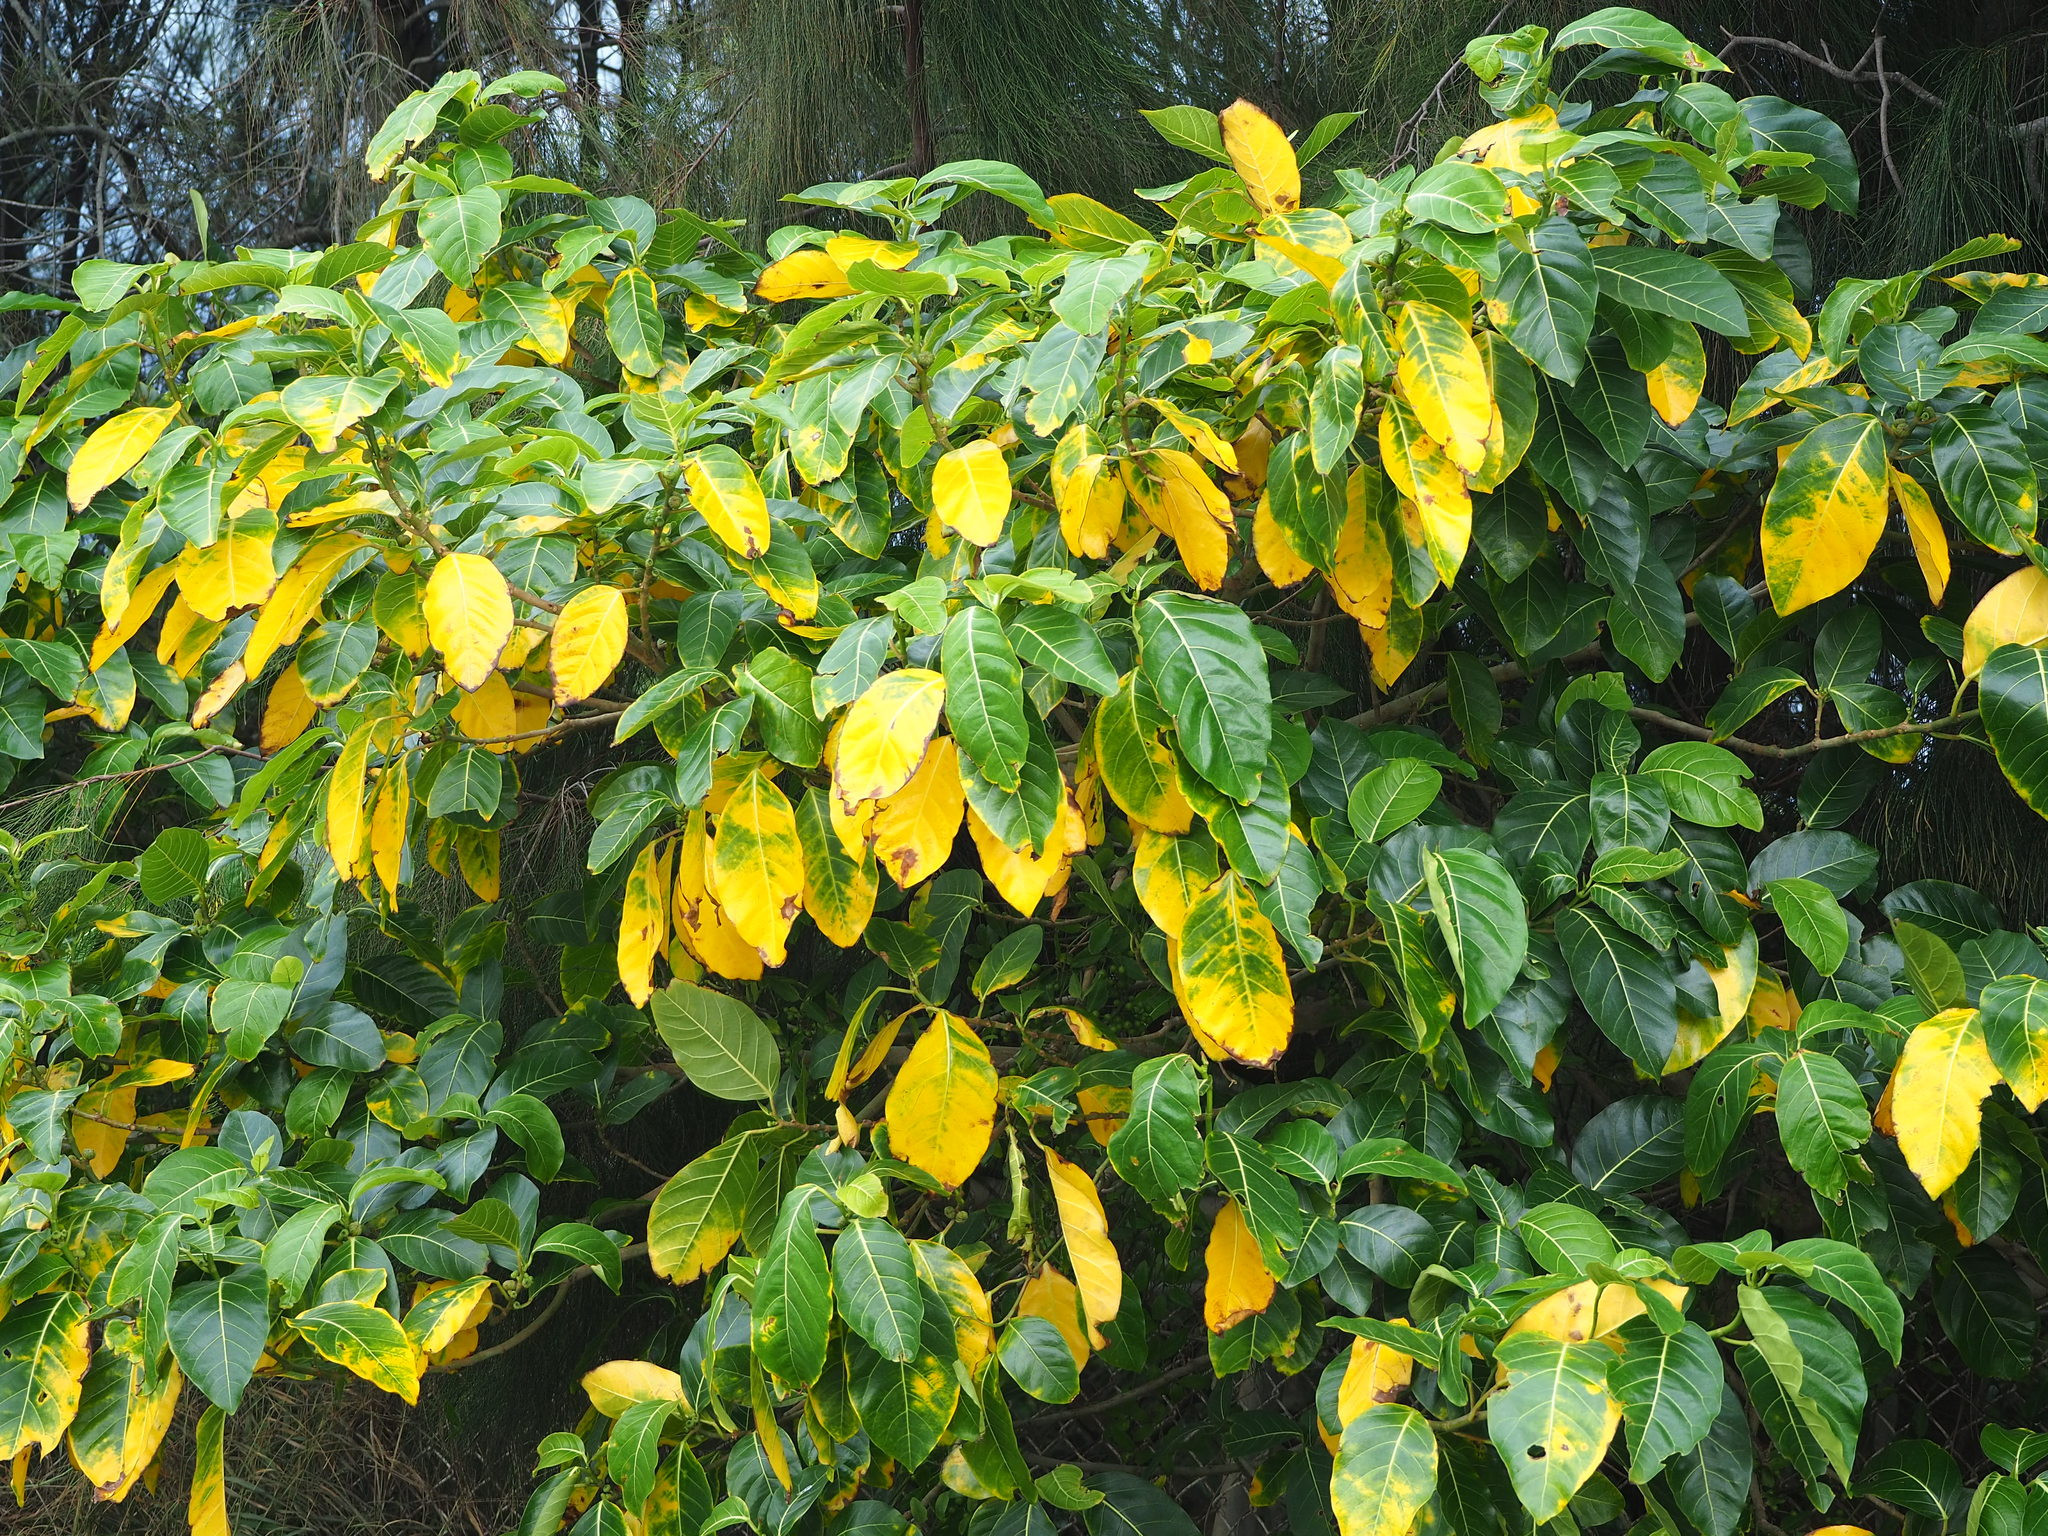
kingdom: Plantae
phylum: Tracheophyta
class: Magnoliopsida
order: Rosales
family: Moraceae
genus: Ficus
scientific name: Ficus septica
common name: Septic fig
